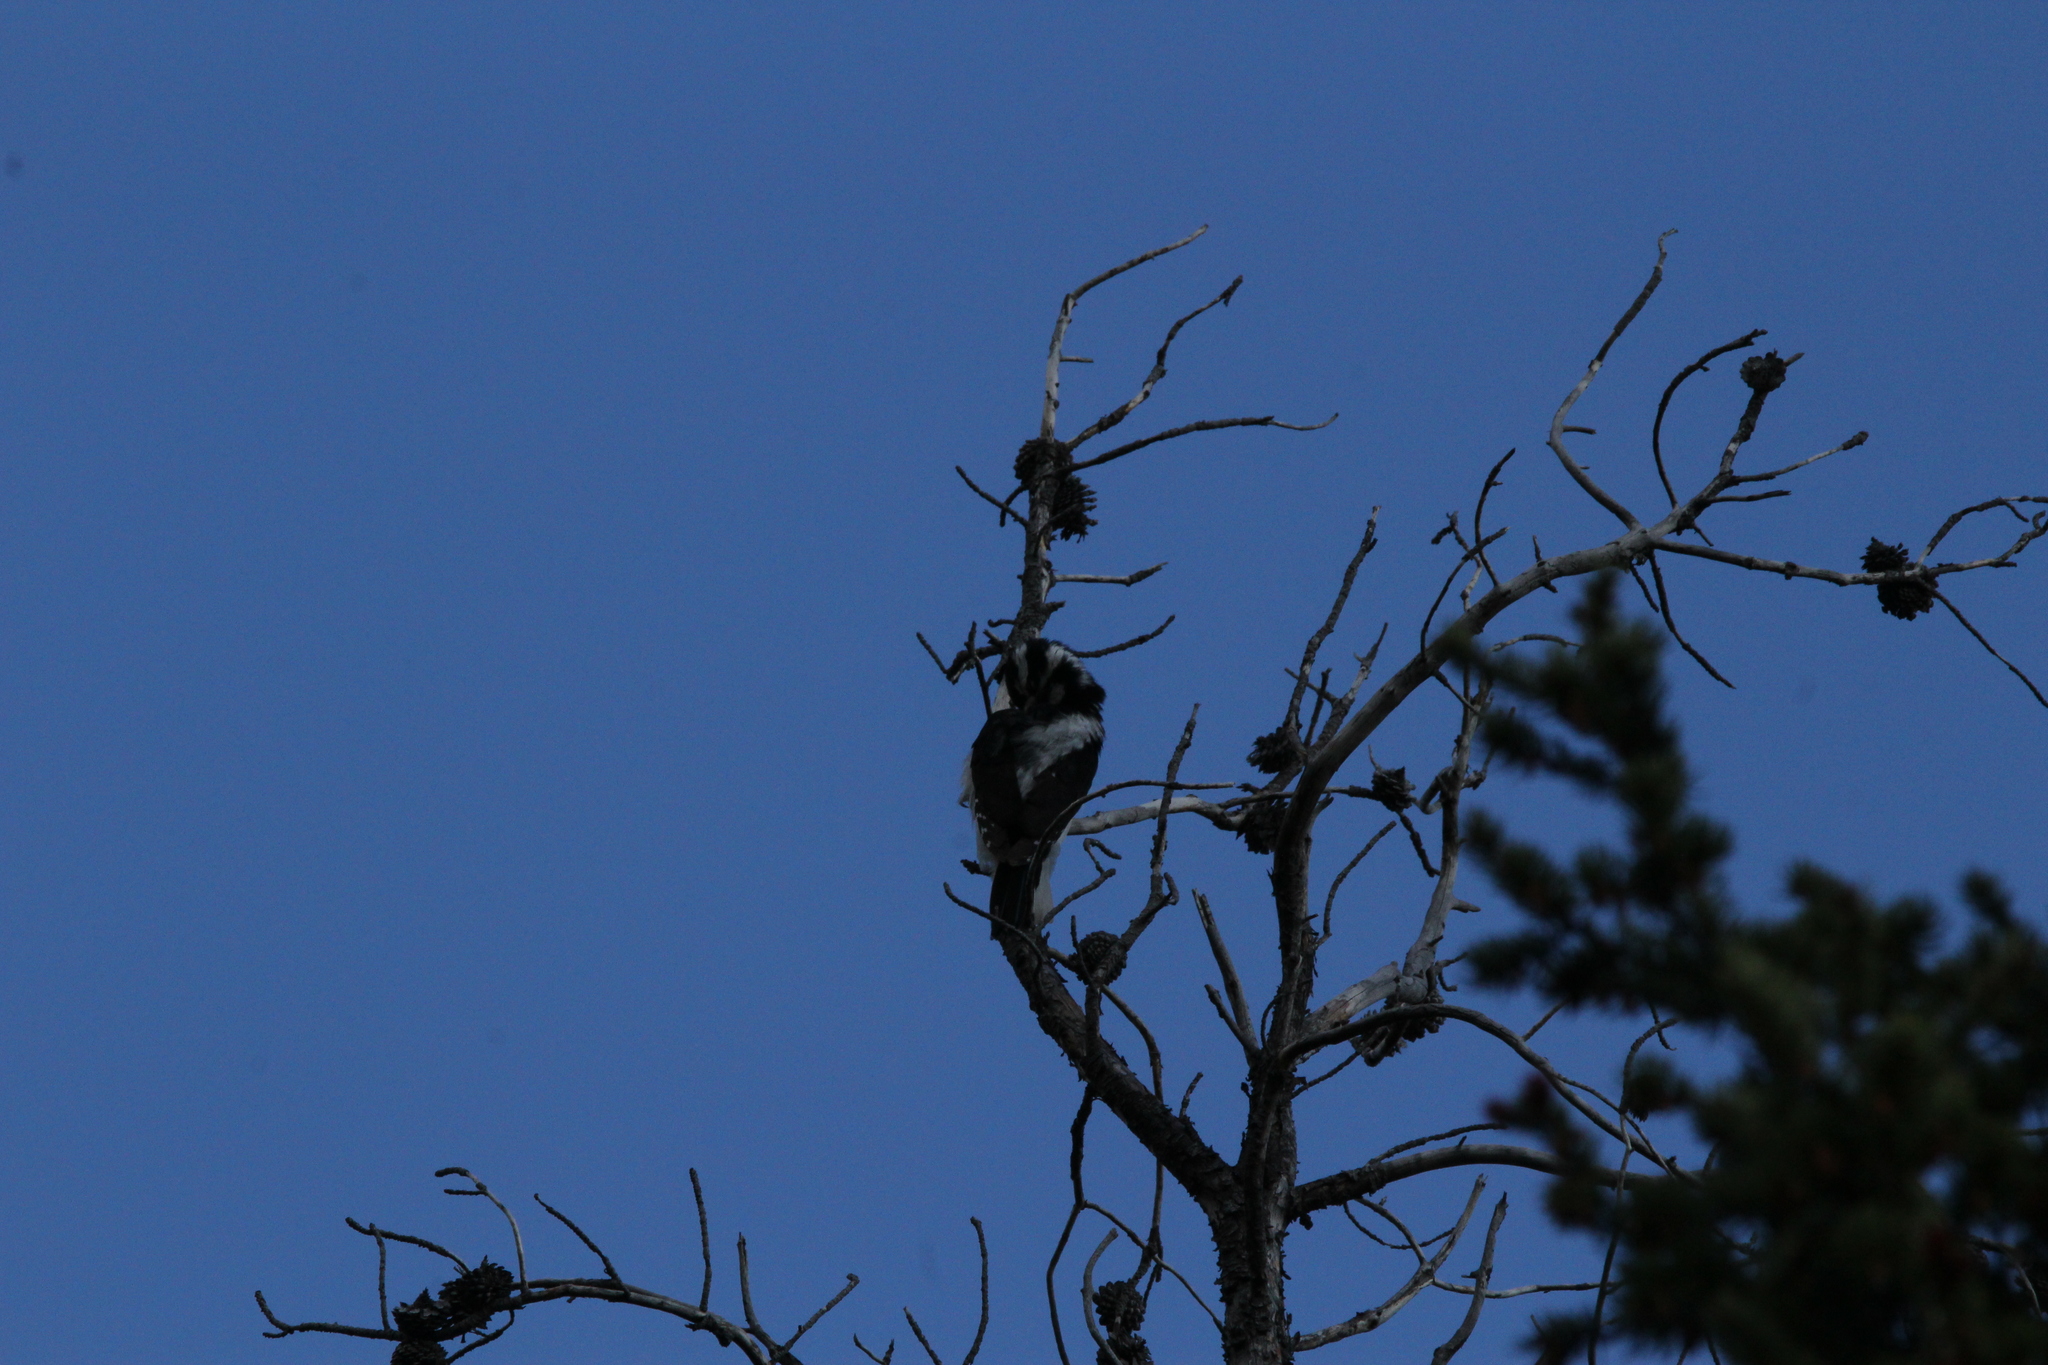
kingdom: Animalia
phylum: Chordata
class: Aves
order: Piciformes
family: Picidae
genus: Leuconotopicus
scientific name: Leuconotopicus villosus
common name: Hairy woodpecker
